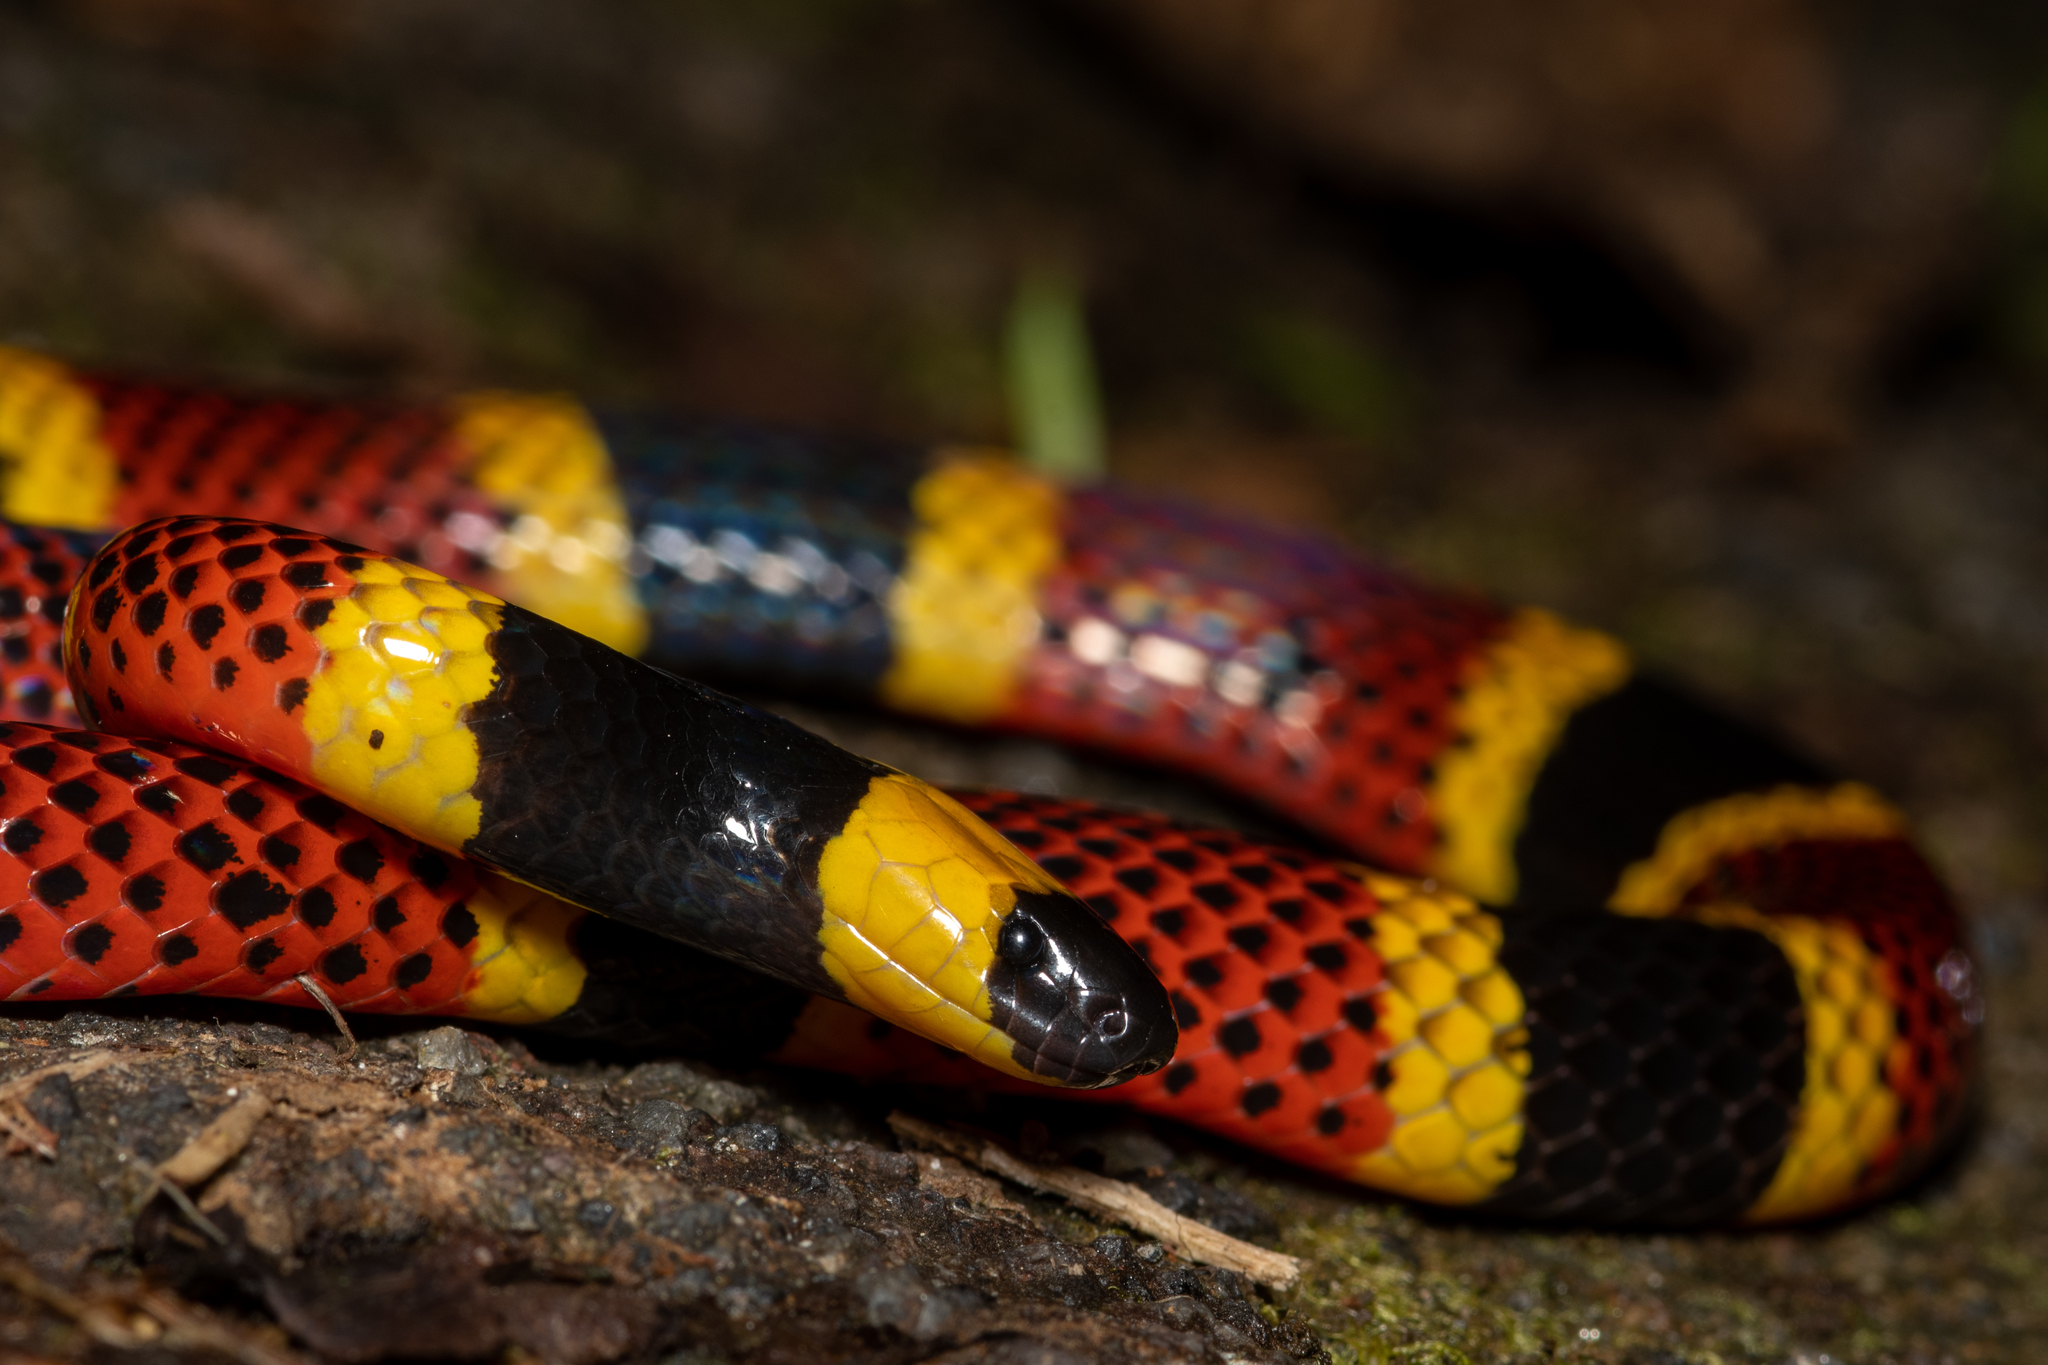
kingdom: Animalia
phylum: Chordata
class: Squamata
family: Elapidae
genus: Micrurus
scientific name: Micrurus mosquitensis
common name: Misquito coral snake
